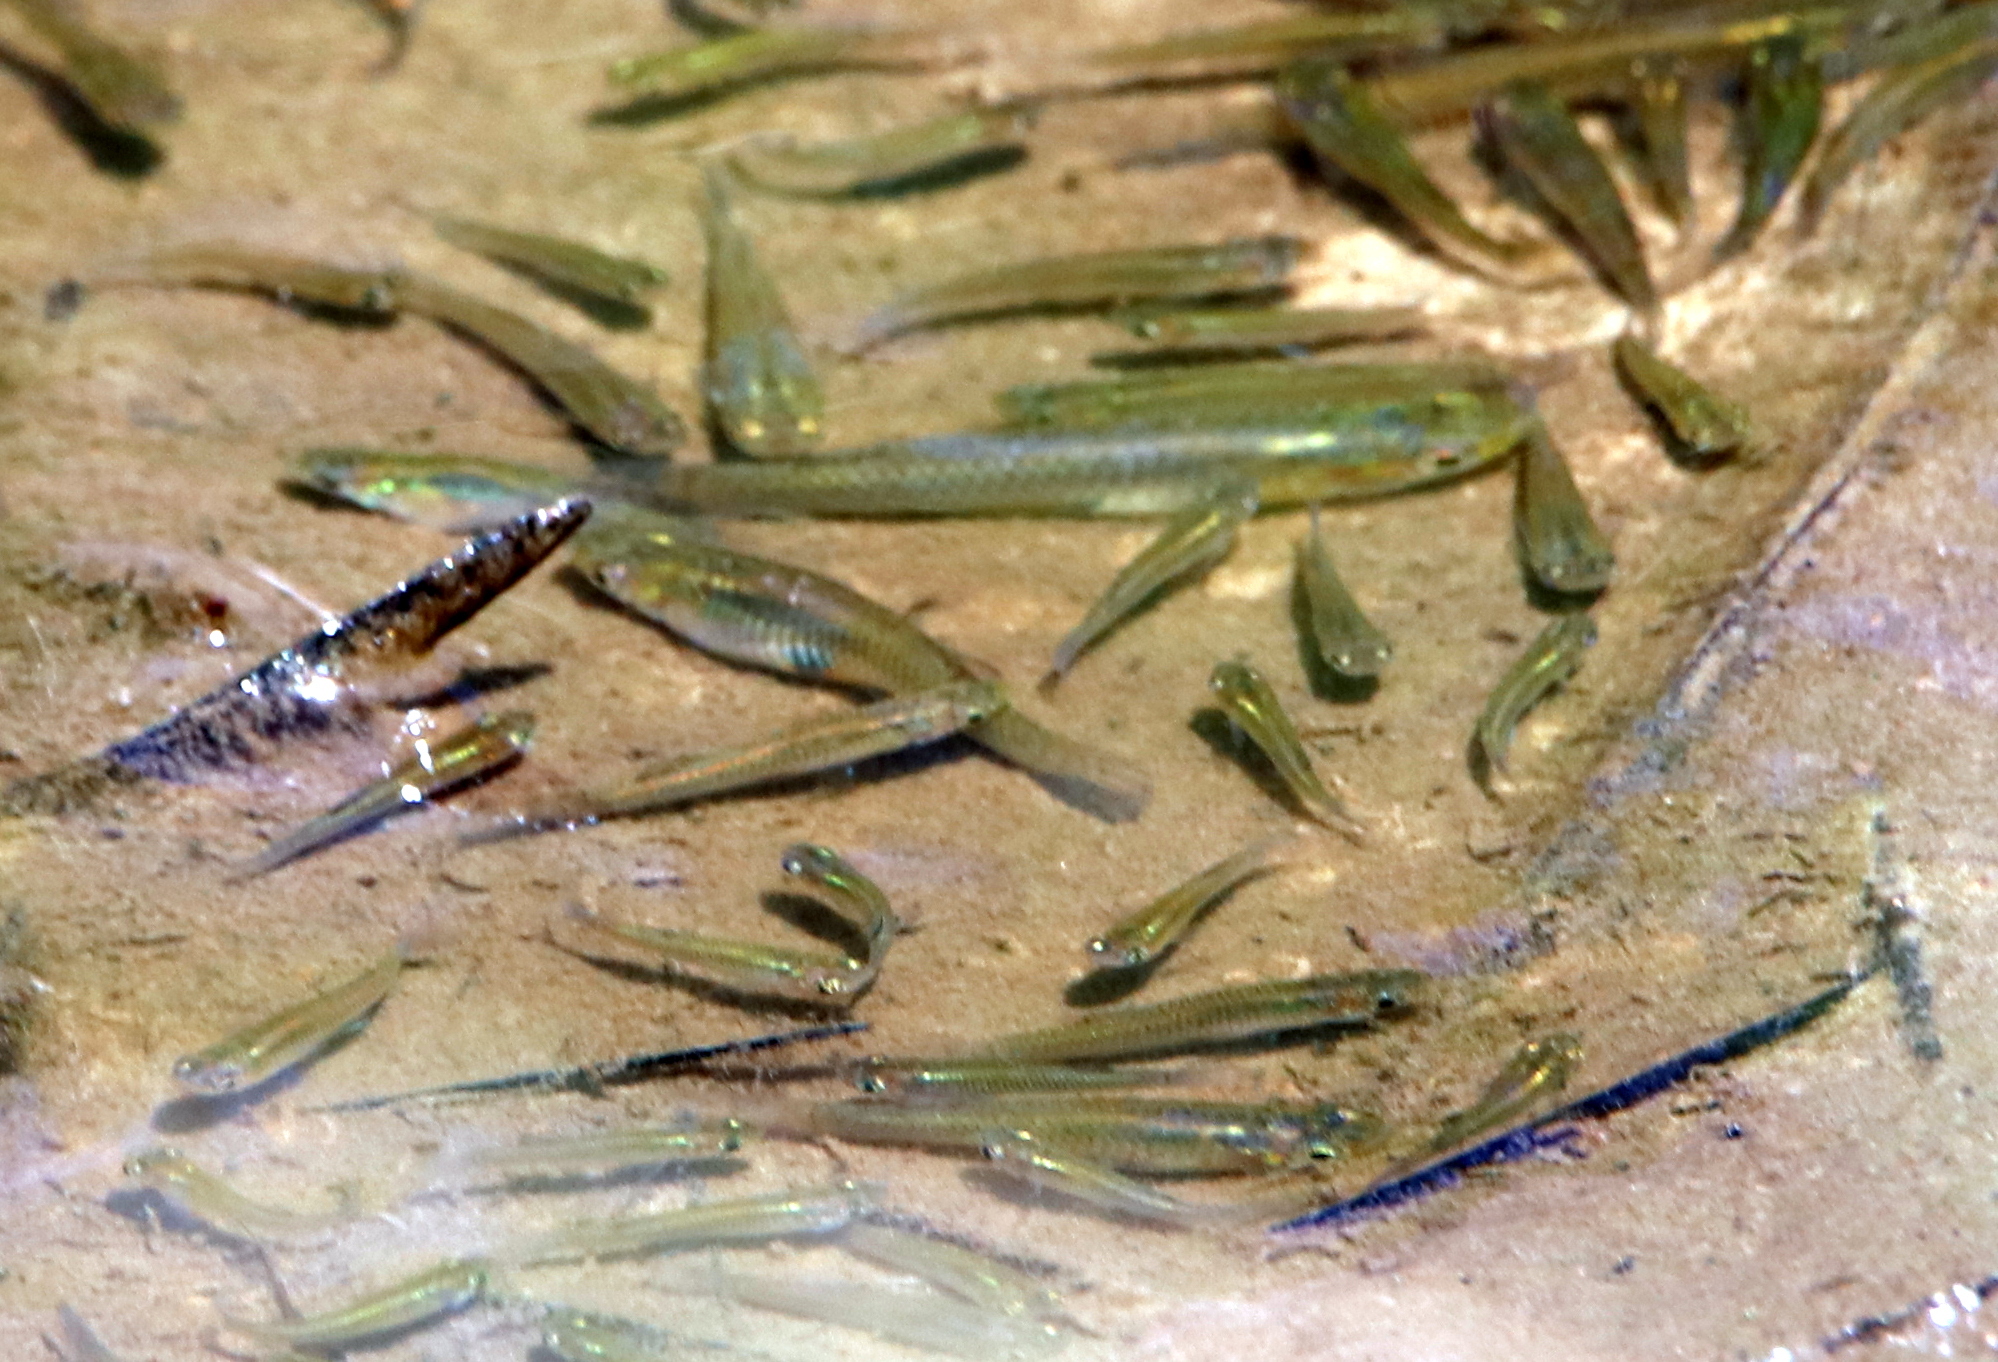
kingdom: Animalia
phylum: Chordata
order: Cyprinodontiformes
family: Poeciliidae
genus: Gambusia
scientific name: Gambusia affinis
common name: Mosquitofish
